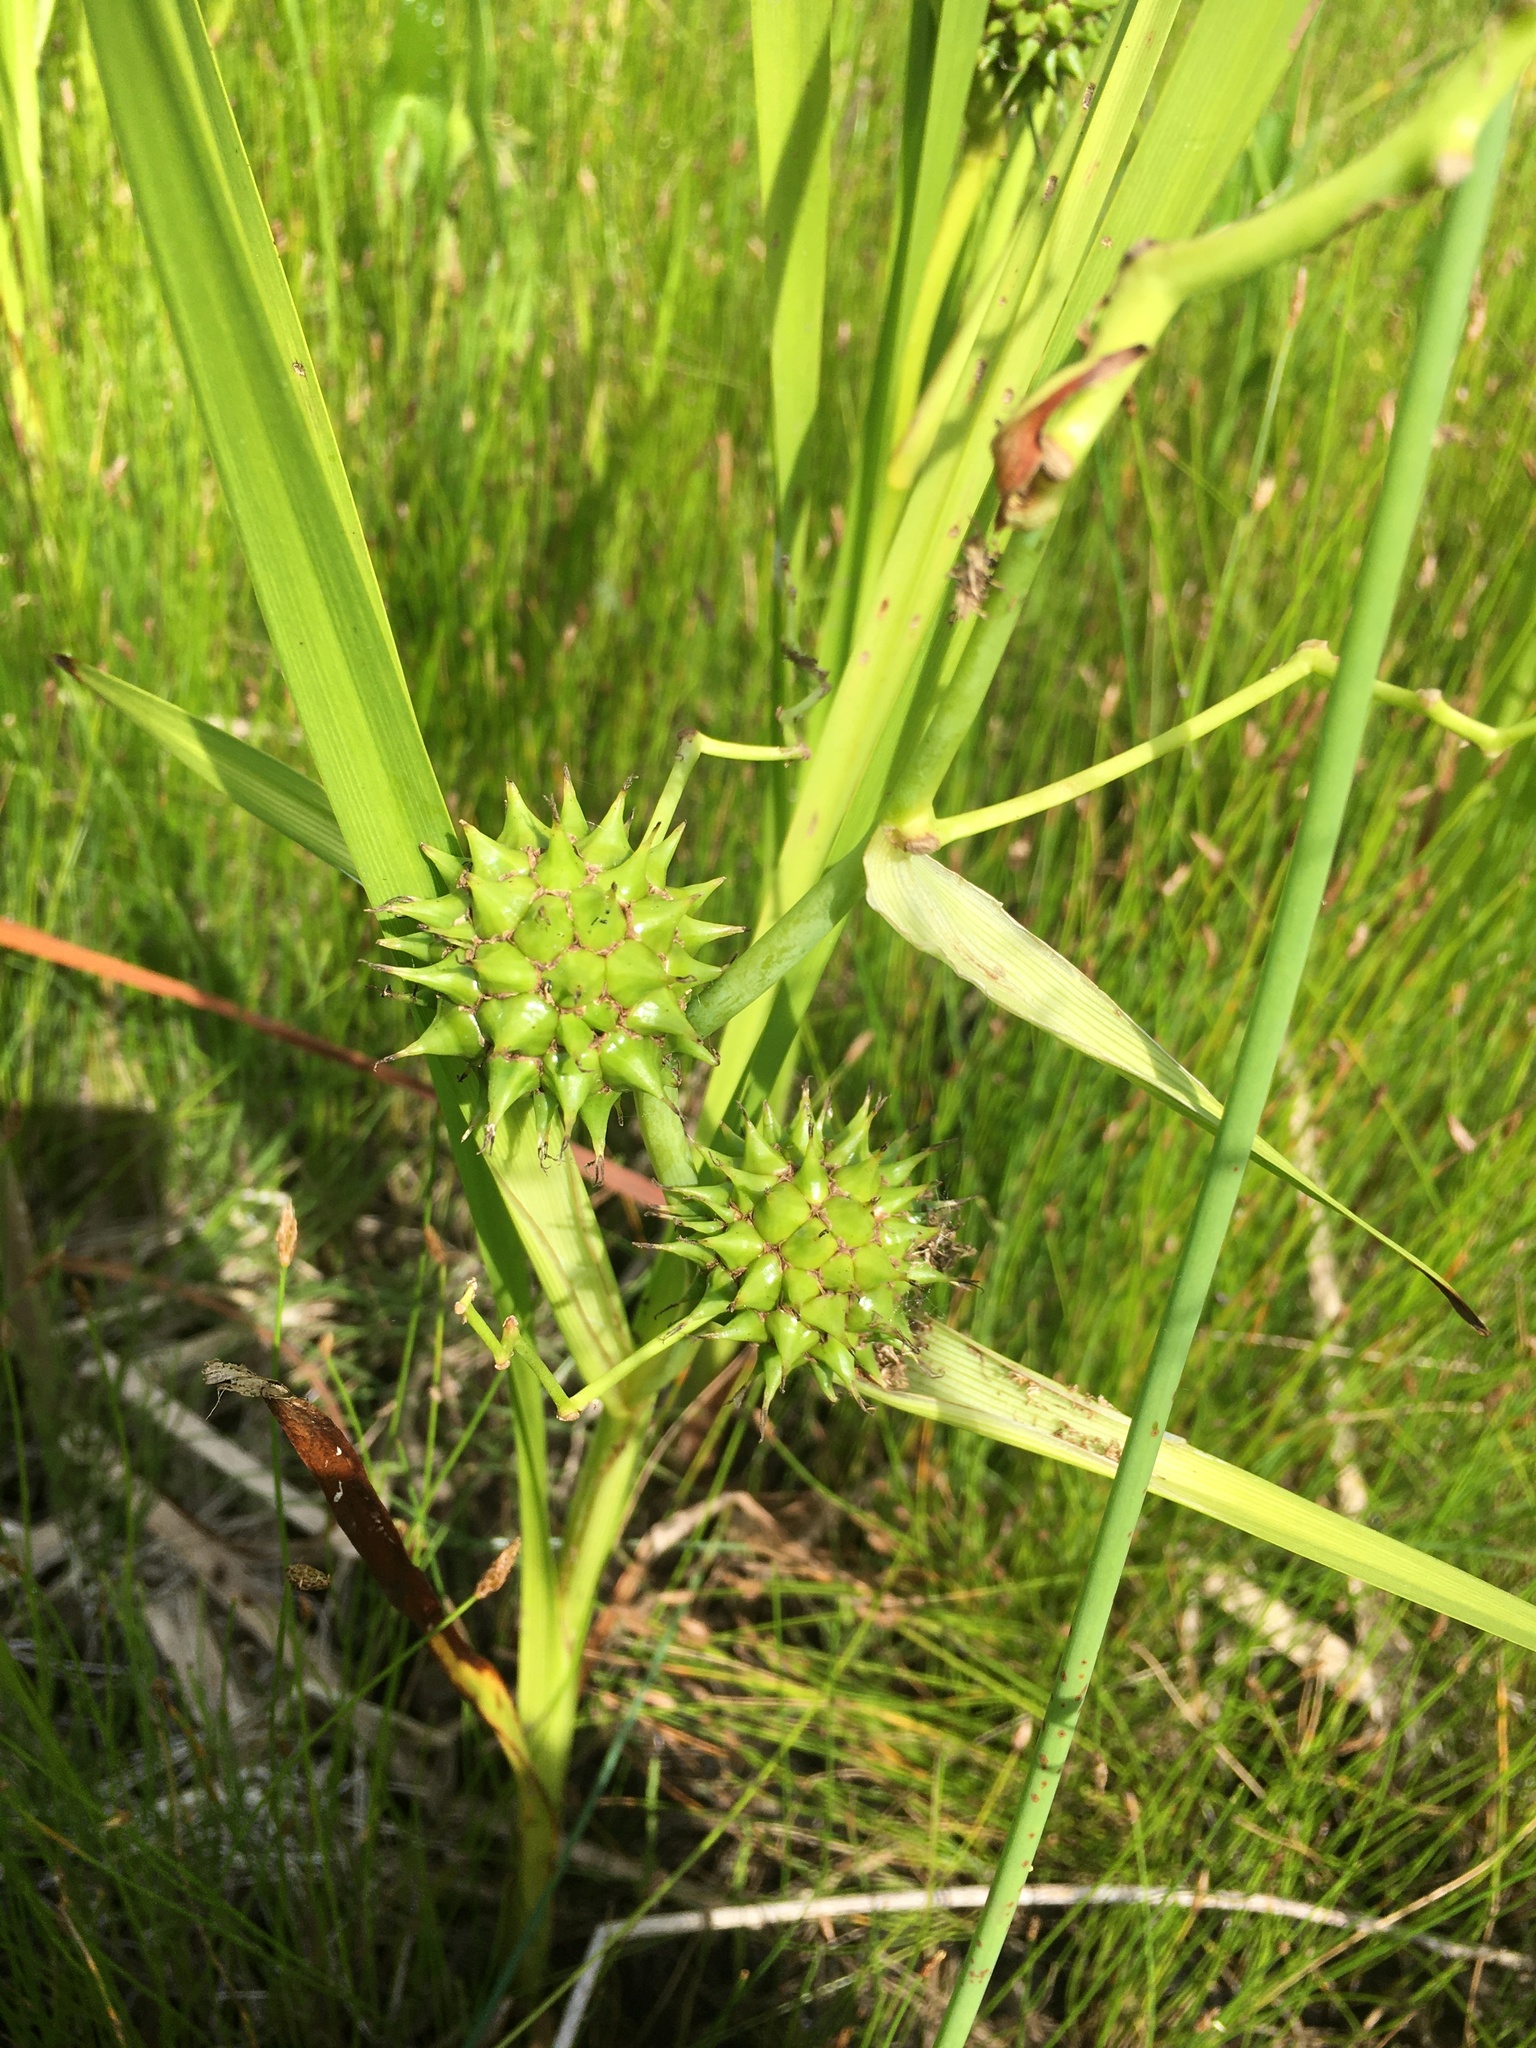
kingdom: Plantae
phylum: Tracheophyta
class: Liliopsida
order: Poales
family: Typhaceae
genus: Sparganium
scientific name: Sparganium eurycarpum
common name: Broad-fruited burreed
